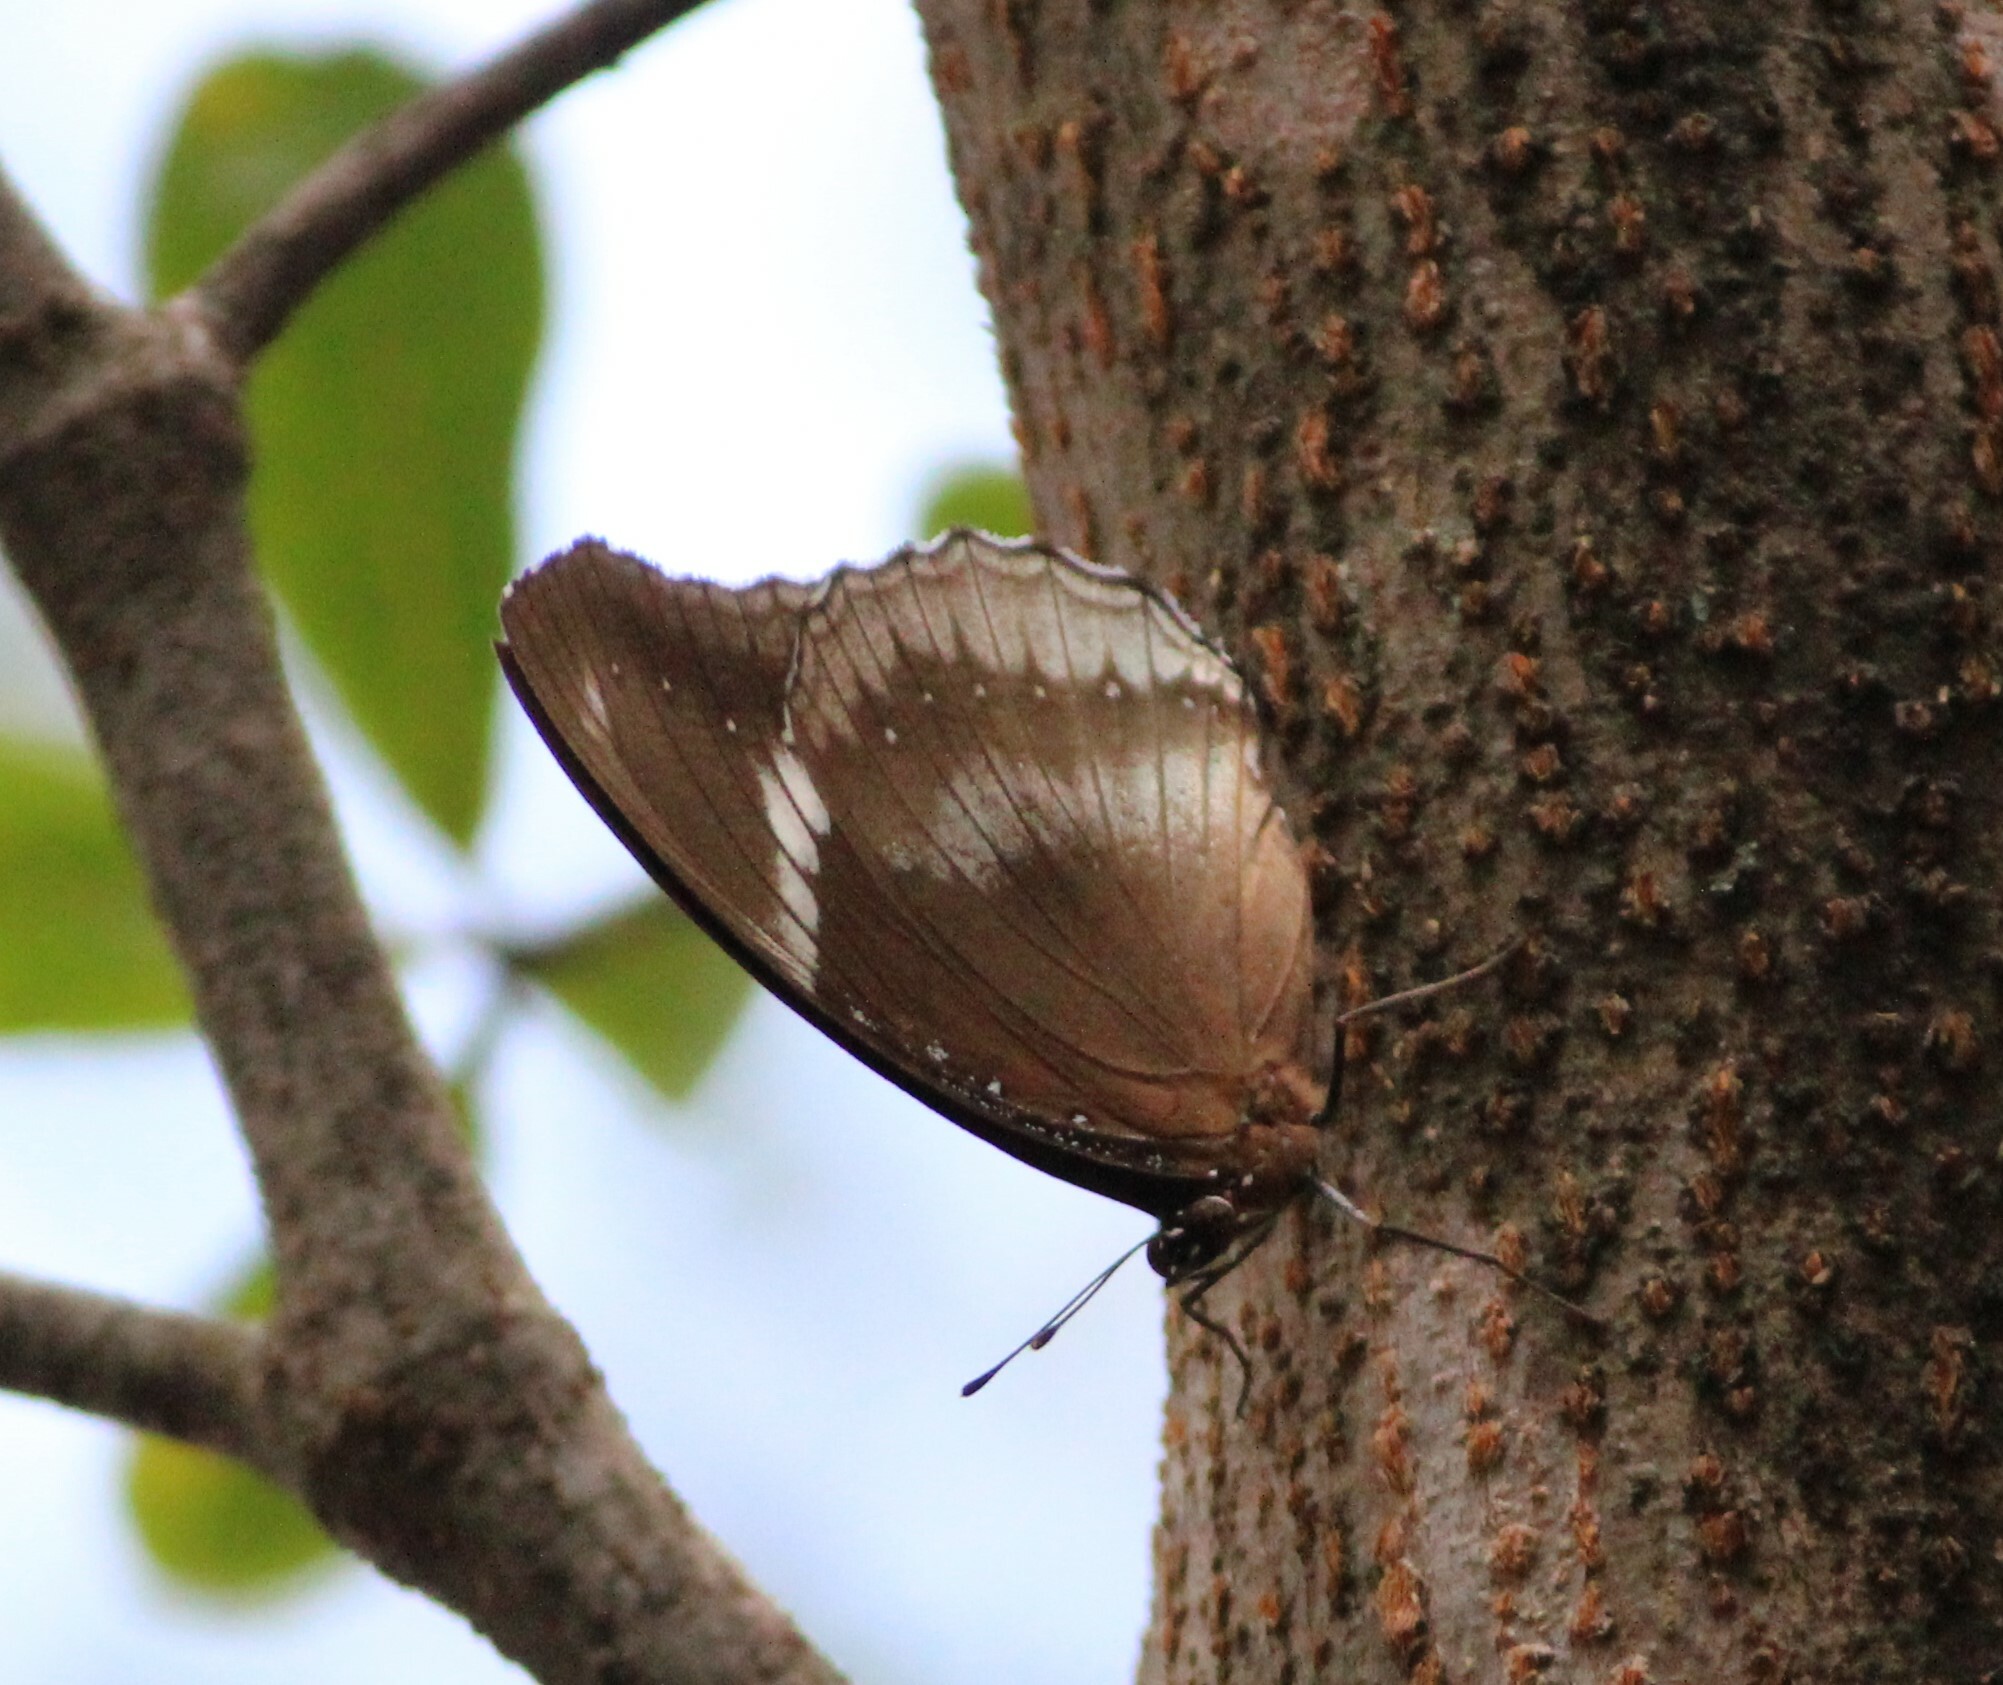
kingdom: Animalia
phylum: Arthropoda
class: Insecta
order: Lepidoptera
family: Nymphalidae
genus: Hypolimnas
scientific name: Hypolimnas bolina
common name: Great eggfly
